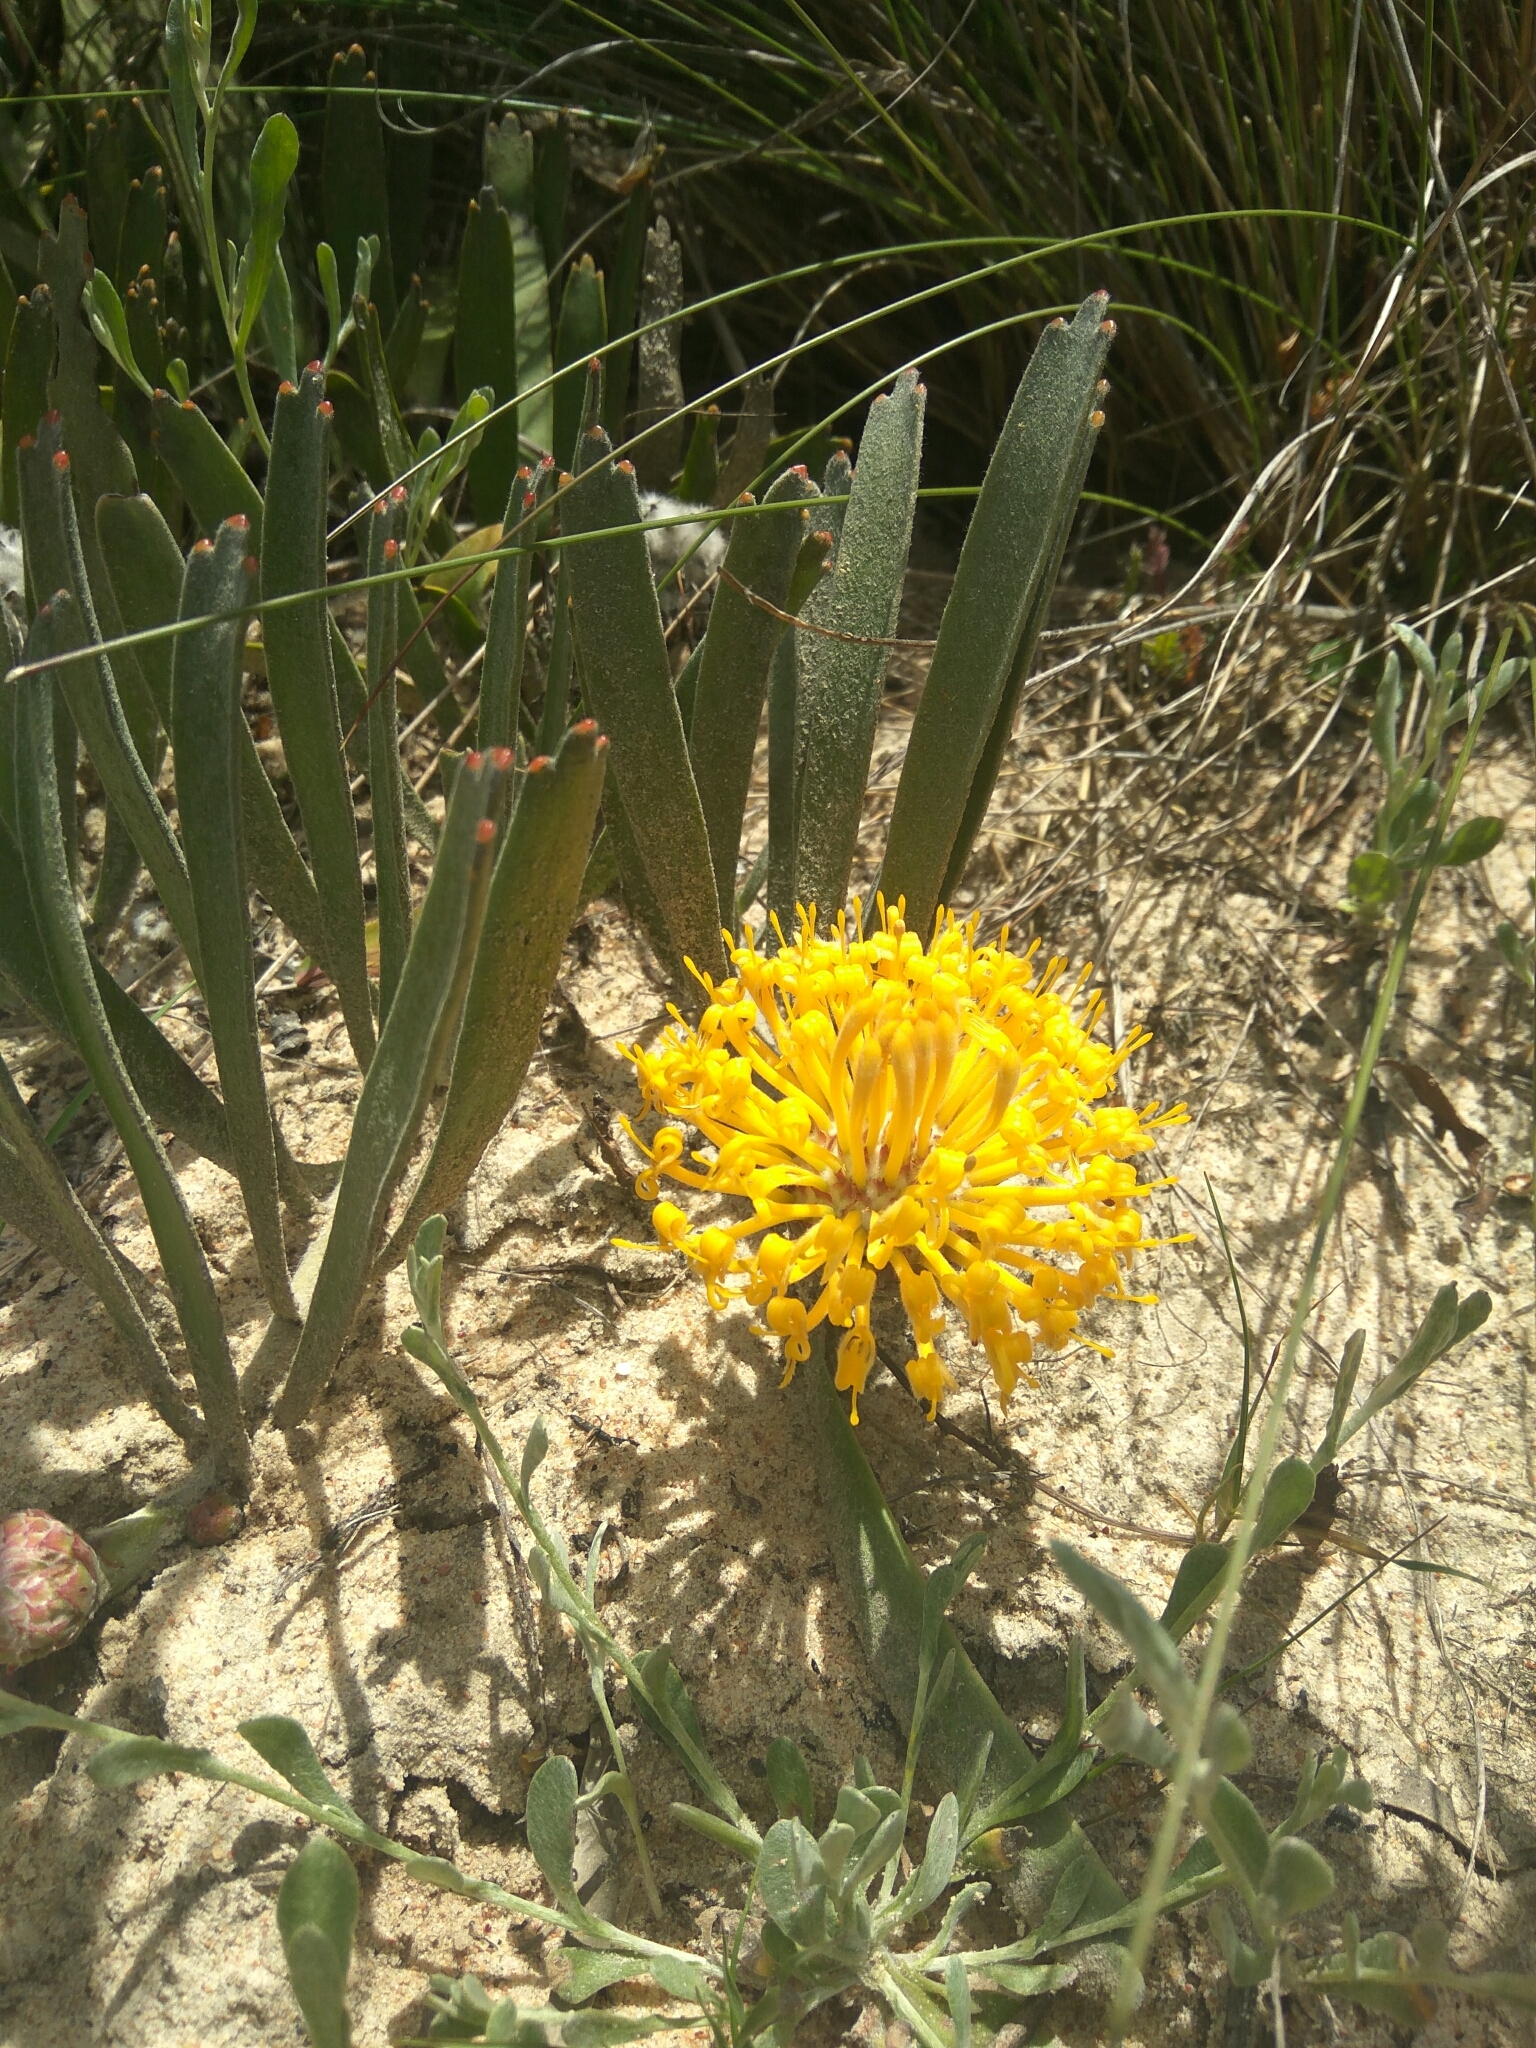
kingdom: Plantae
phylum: Tracheophyta
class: Magnoliopsida
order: Proteales
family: Proteaceae
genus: Leucospermum
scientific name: Leucospermum hypophyllocarpodendron
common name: Snakestem pincushion
